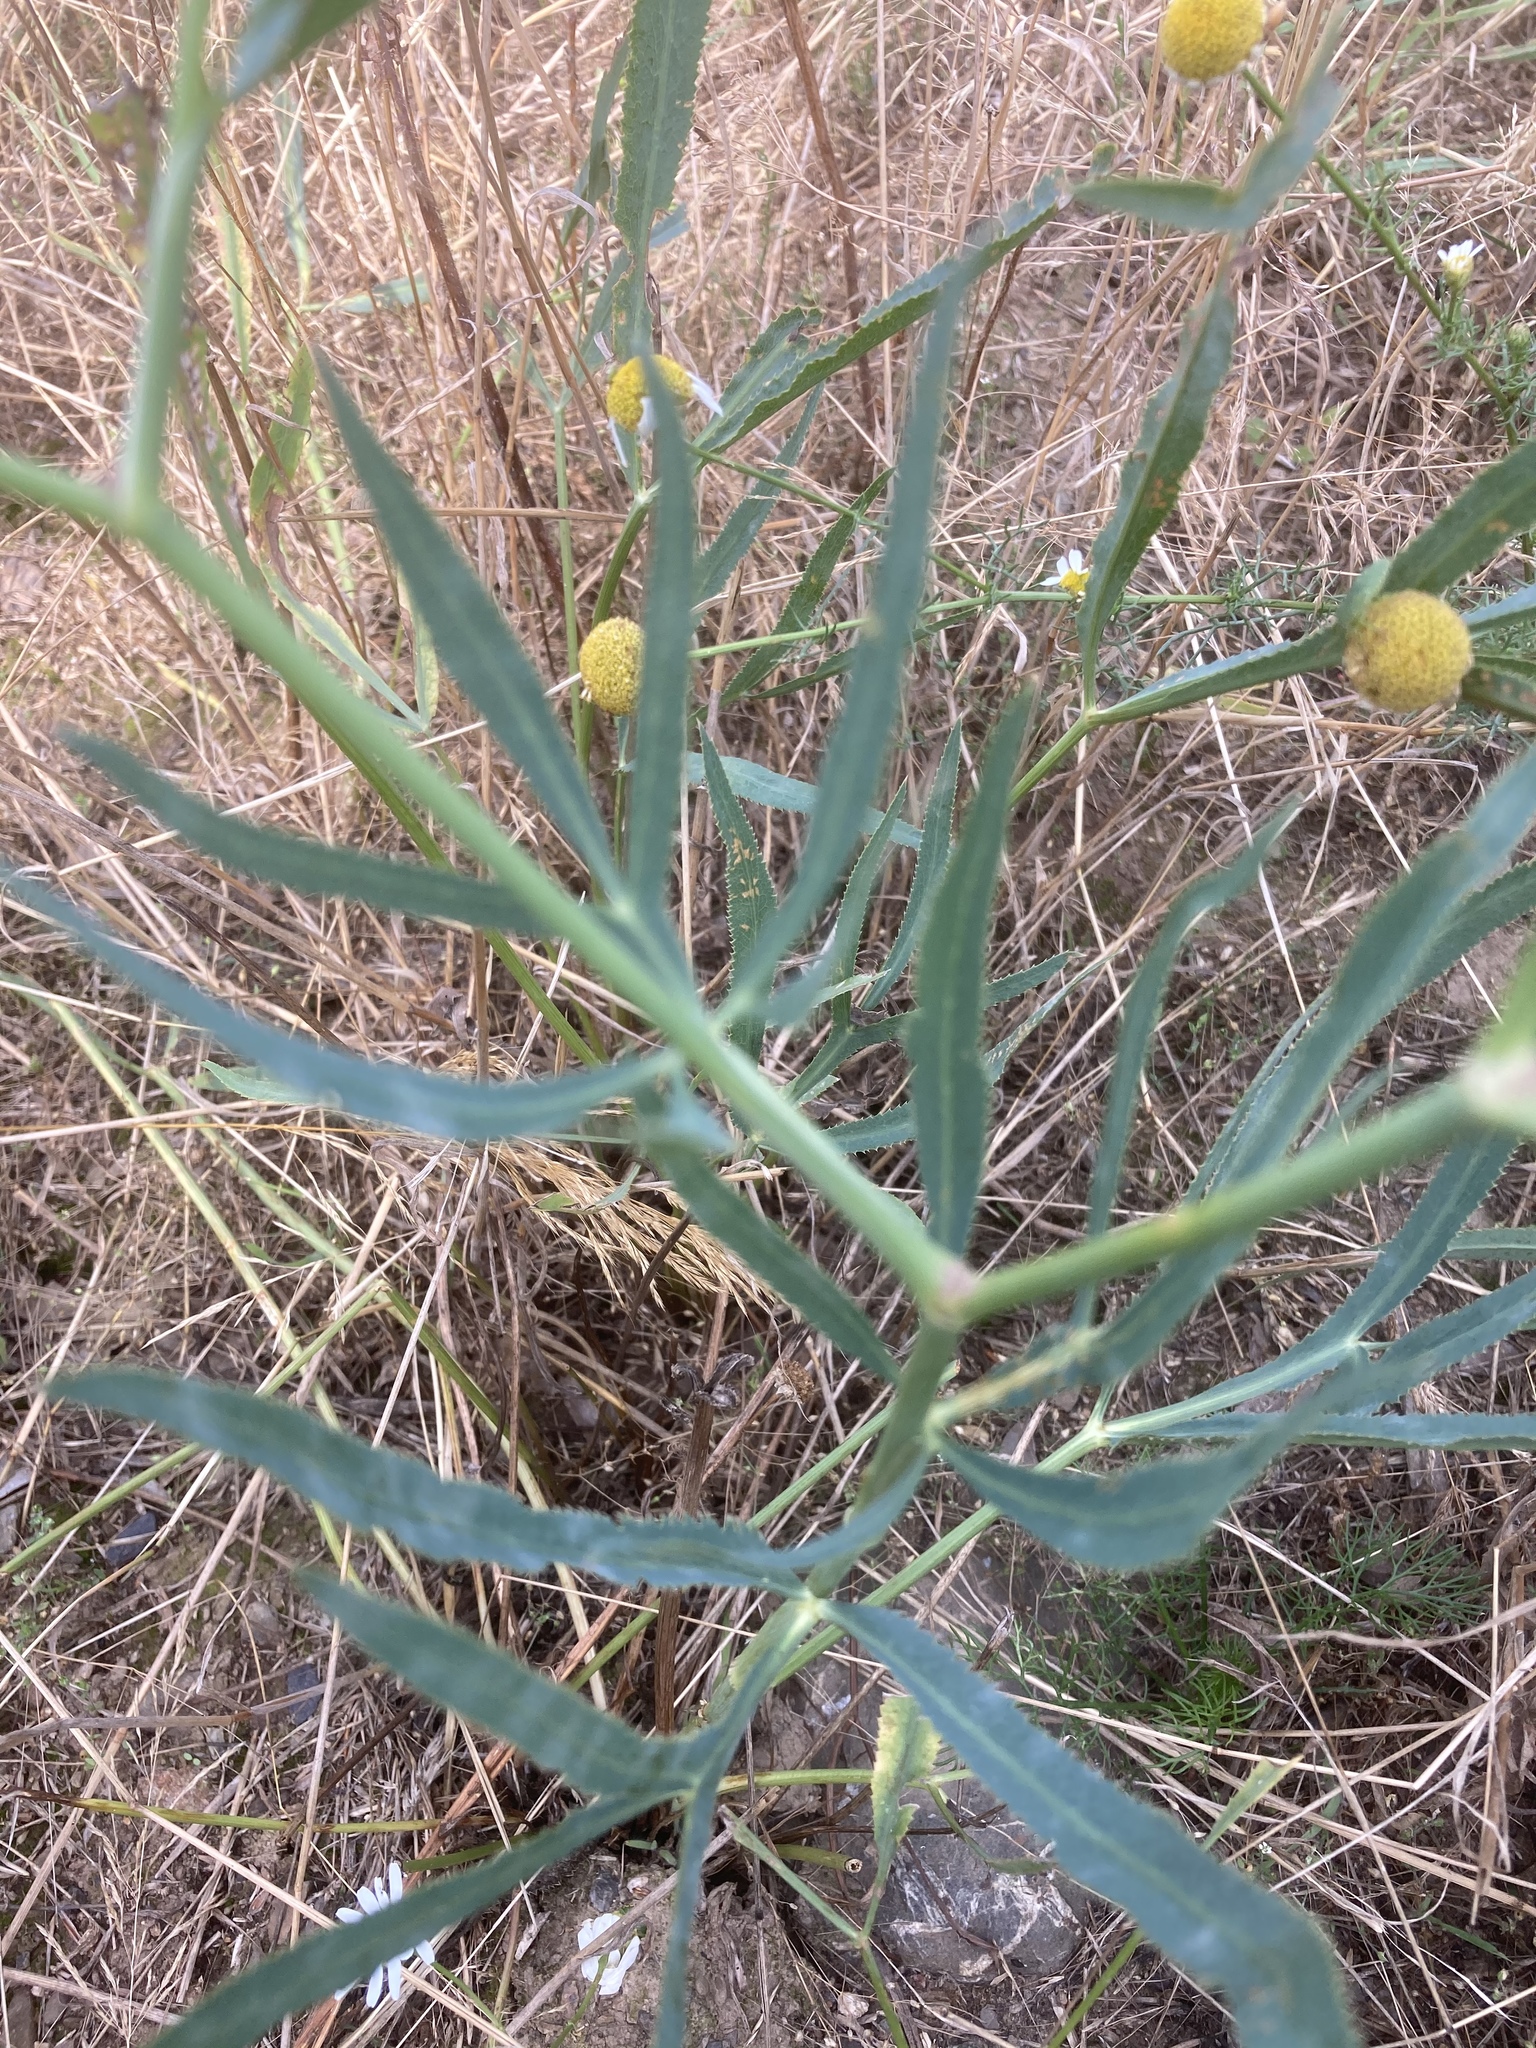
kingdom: Plantae
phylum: Tracheophyta
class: Magnoliopsida
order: Apiales
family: Apiaceae
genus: Falcaria
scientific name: Falcaria vulgaris
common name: Longleaf
